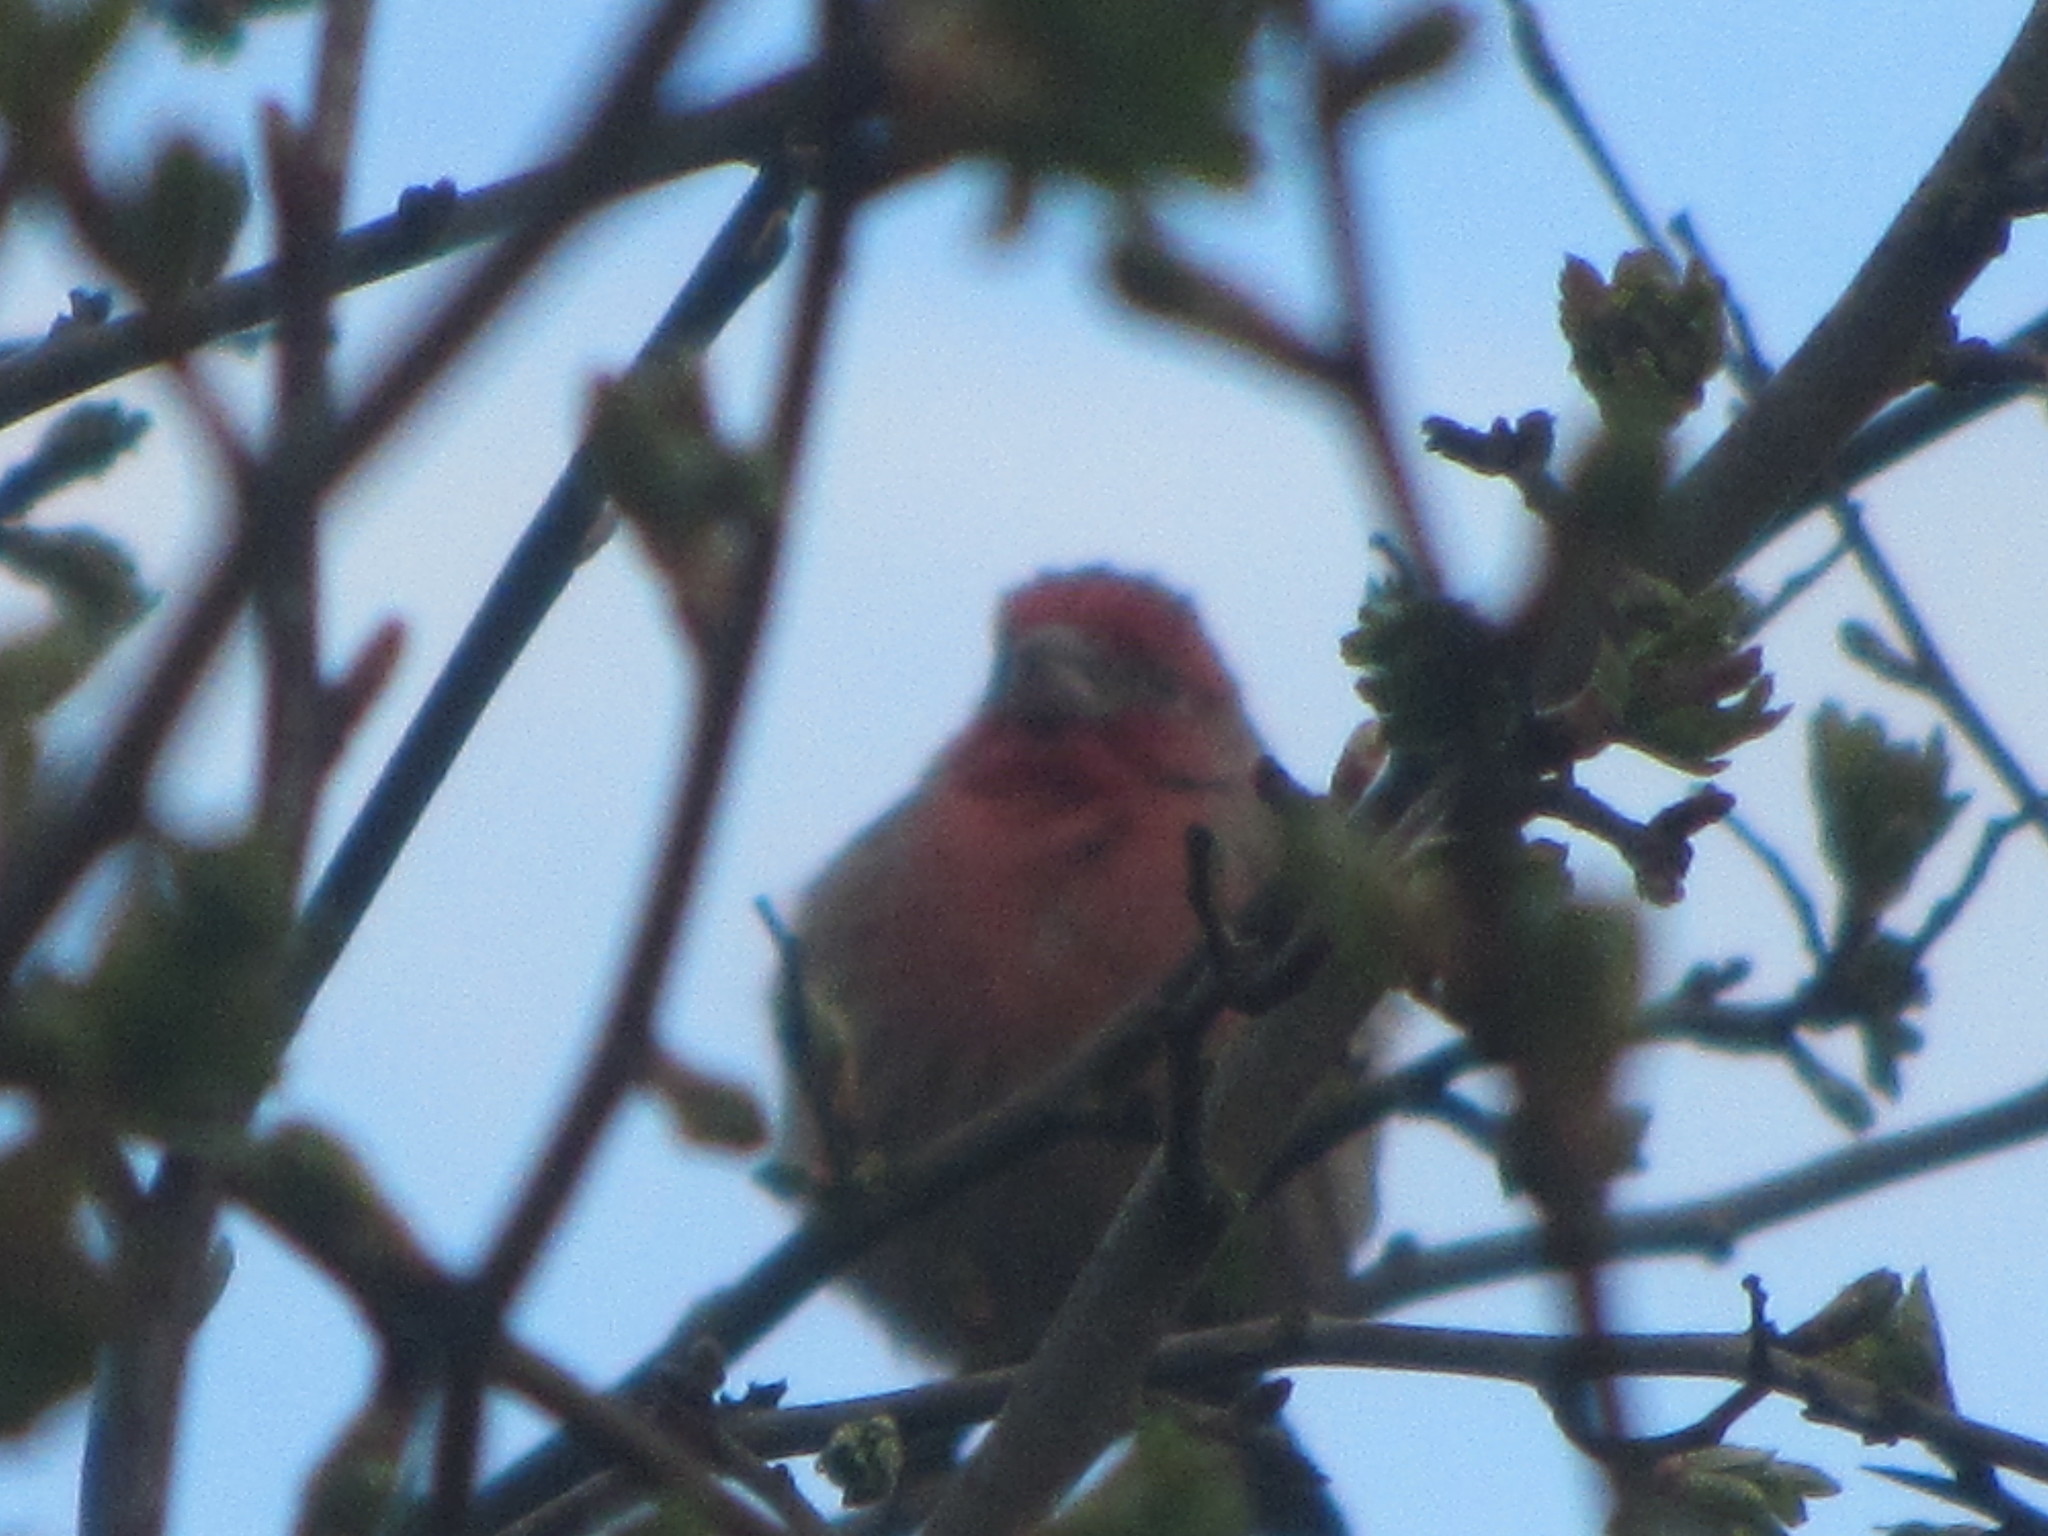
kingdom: Animalia
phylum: Chordata
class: Aves
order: Passeriformes
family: Fringillidae
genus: Haemorhous
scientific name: Haemorhous mexicanus
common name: House finch
